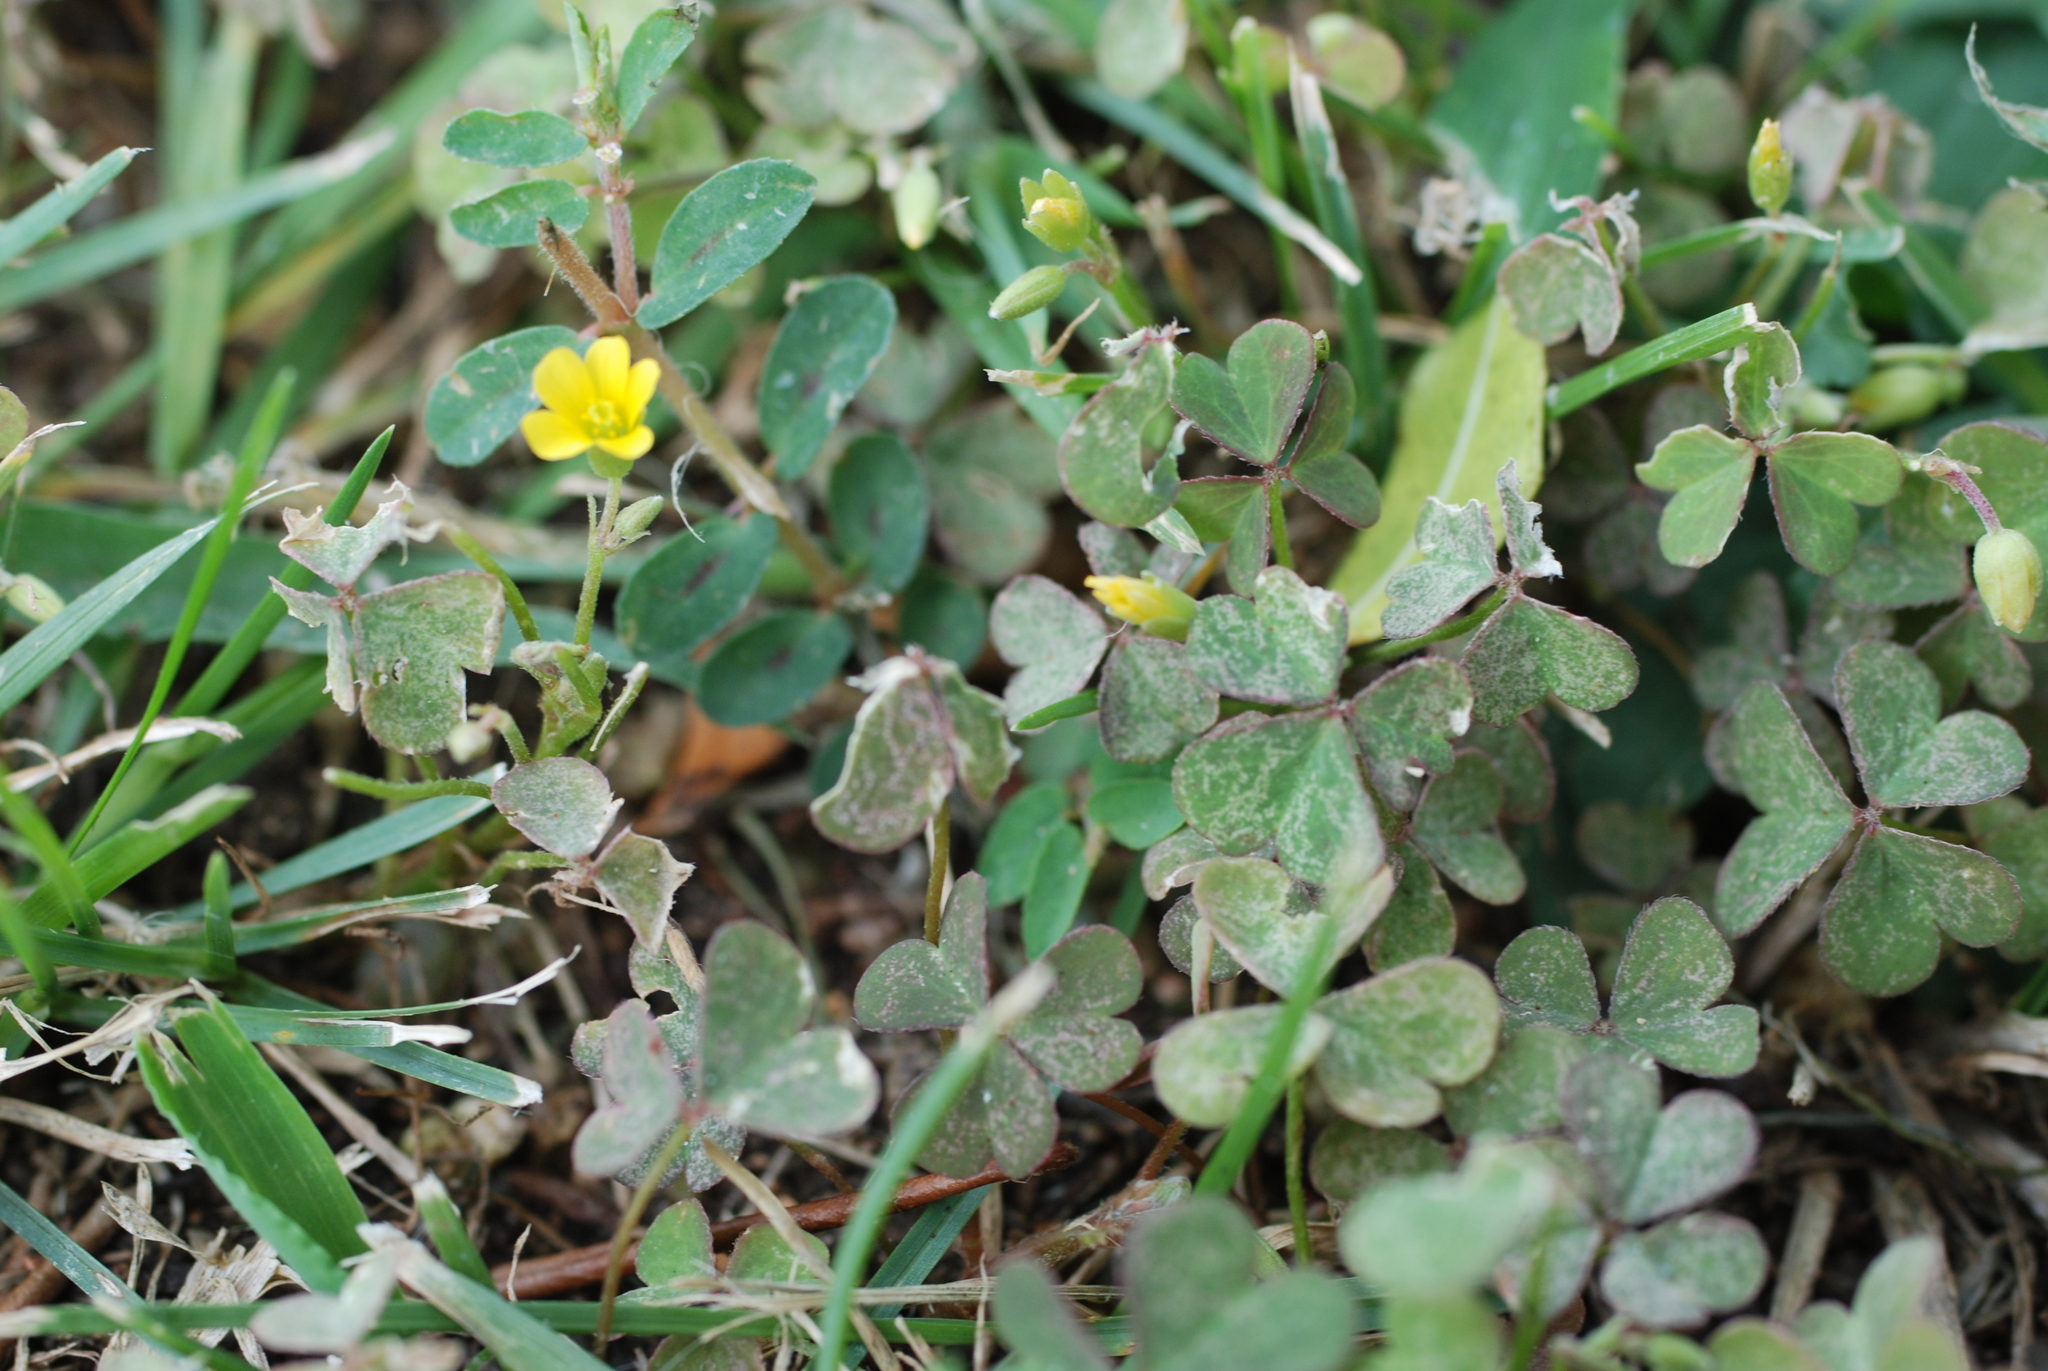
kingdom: Plantae
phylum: Tracheophyta
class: Magnoliopsida
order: Oxalidales
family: Oxalidaceae
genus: Oxalis
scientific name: Oxalis corniculata
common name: Procumbent yellow-sorrel
